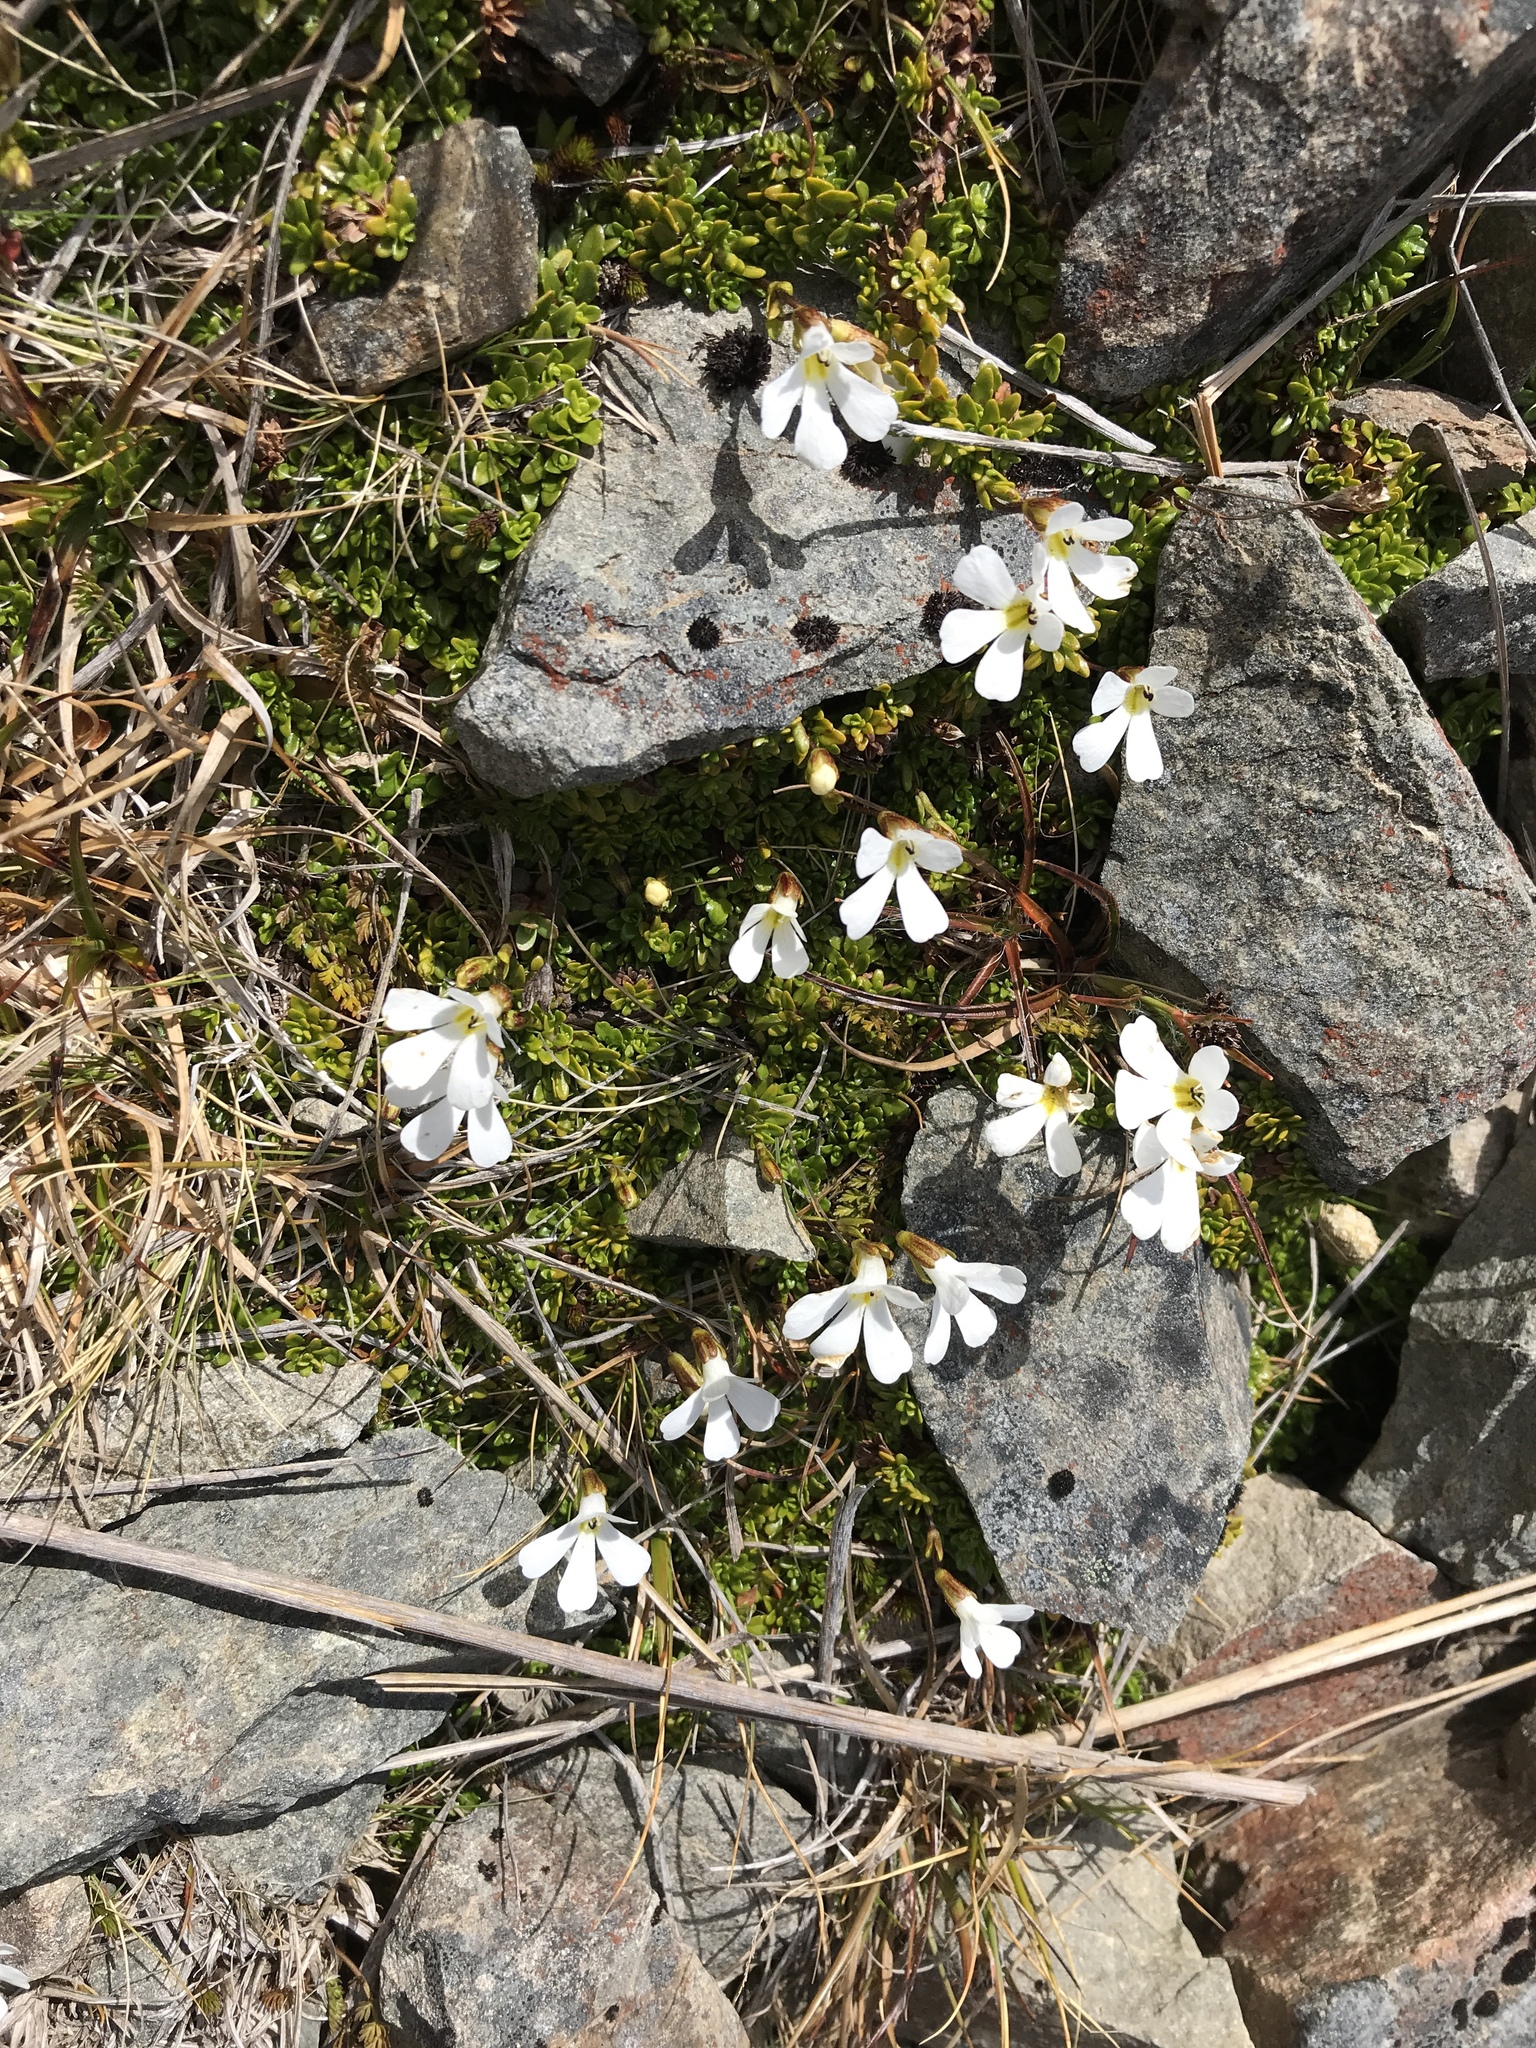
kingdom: Plantae
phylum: Tracheophyta
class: Magnoliopsida
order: Lamiales
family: Plantaginaceae
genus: Ourisia
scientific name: Ourisia caespitosa
